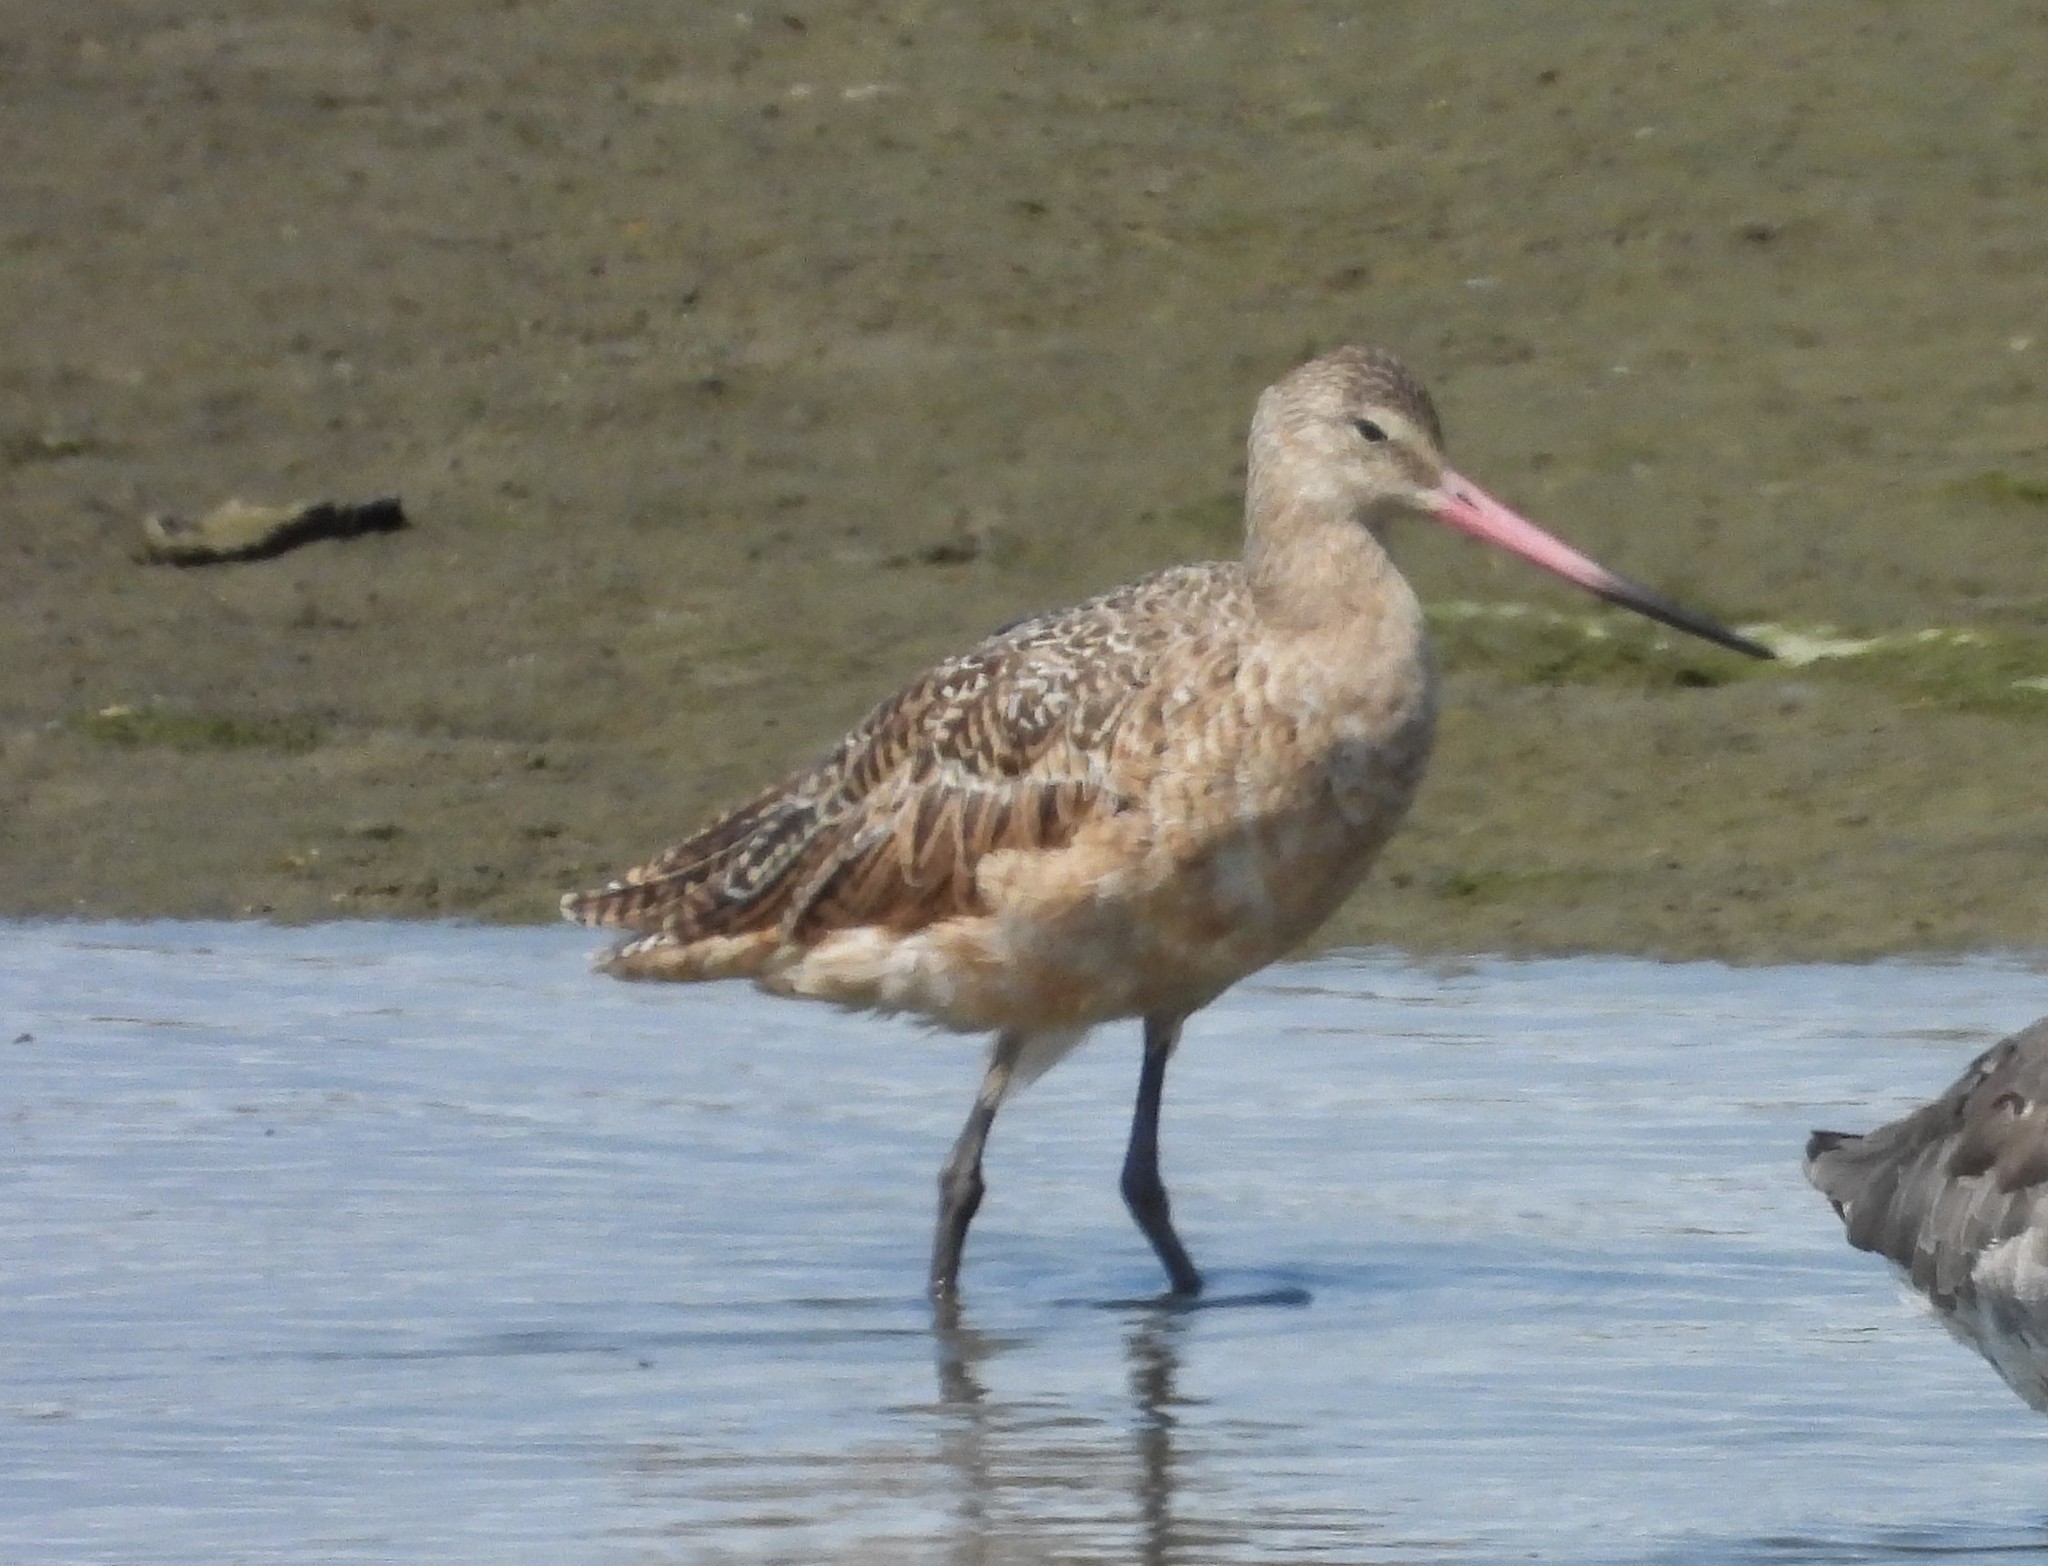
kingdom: Animalia
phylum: Chordata
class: Aves
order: Charadriiformes
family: Scolopacidae
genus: Limosa
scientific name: Limosa fedoa
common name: Marbled godwit
